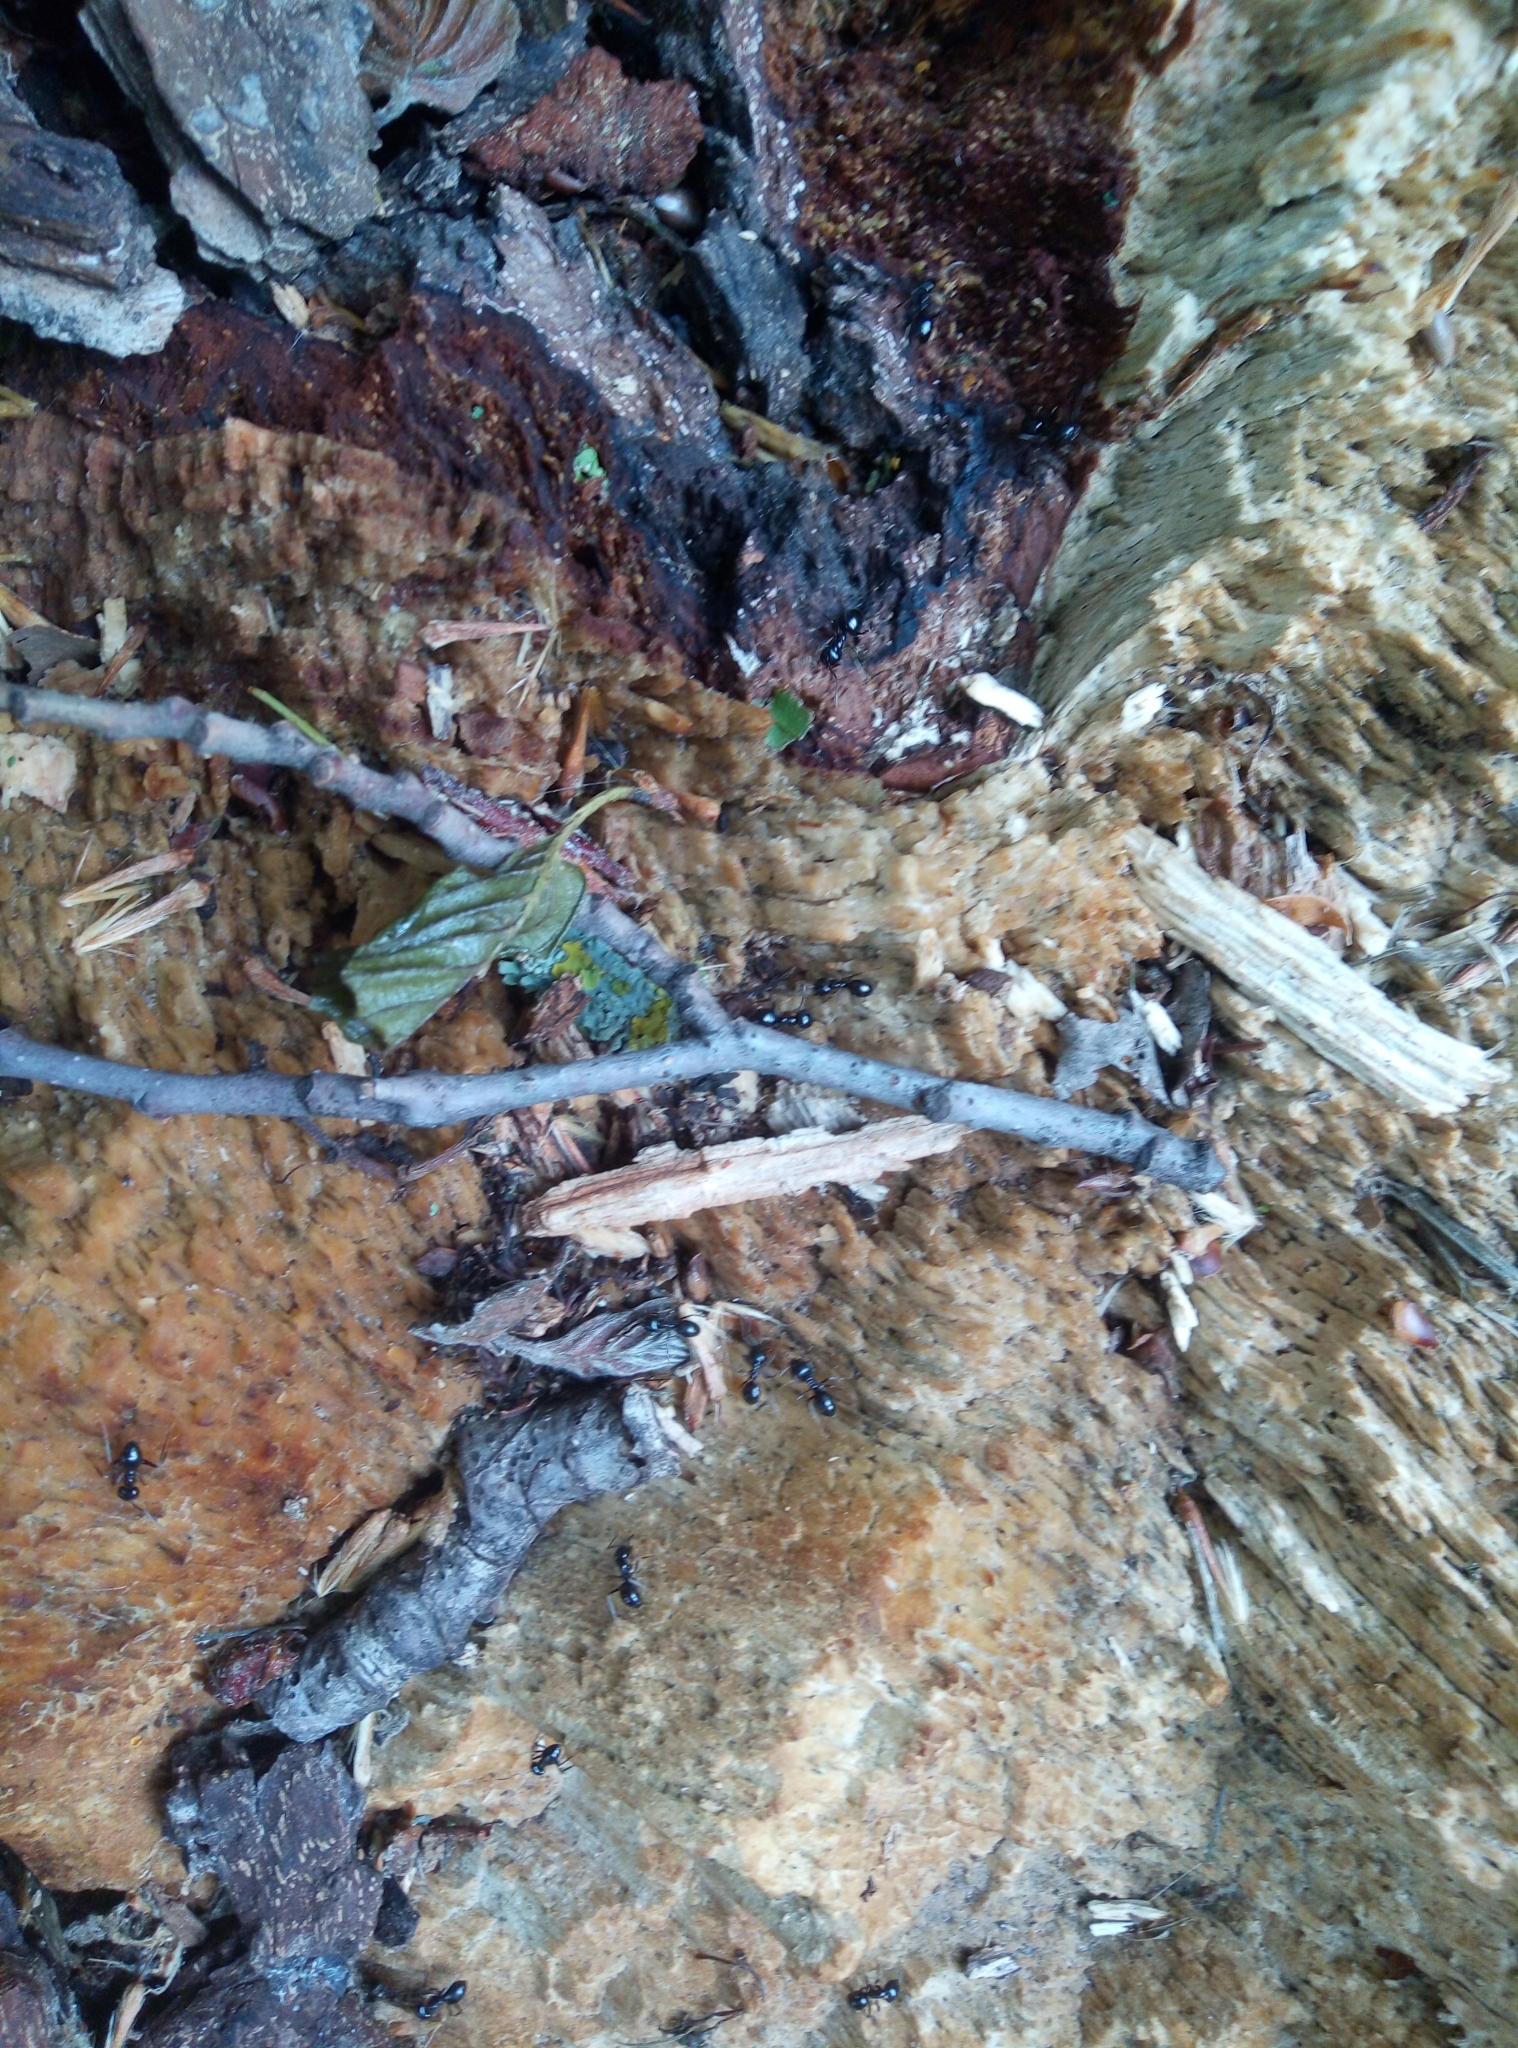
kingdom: Animalia
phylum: Arthropoda
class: Insecta
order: Hymenoptera
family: Formicidae
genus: Lasius
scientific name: Lasius fuliginosus
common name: Jet ant
